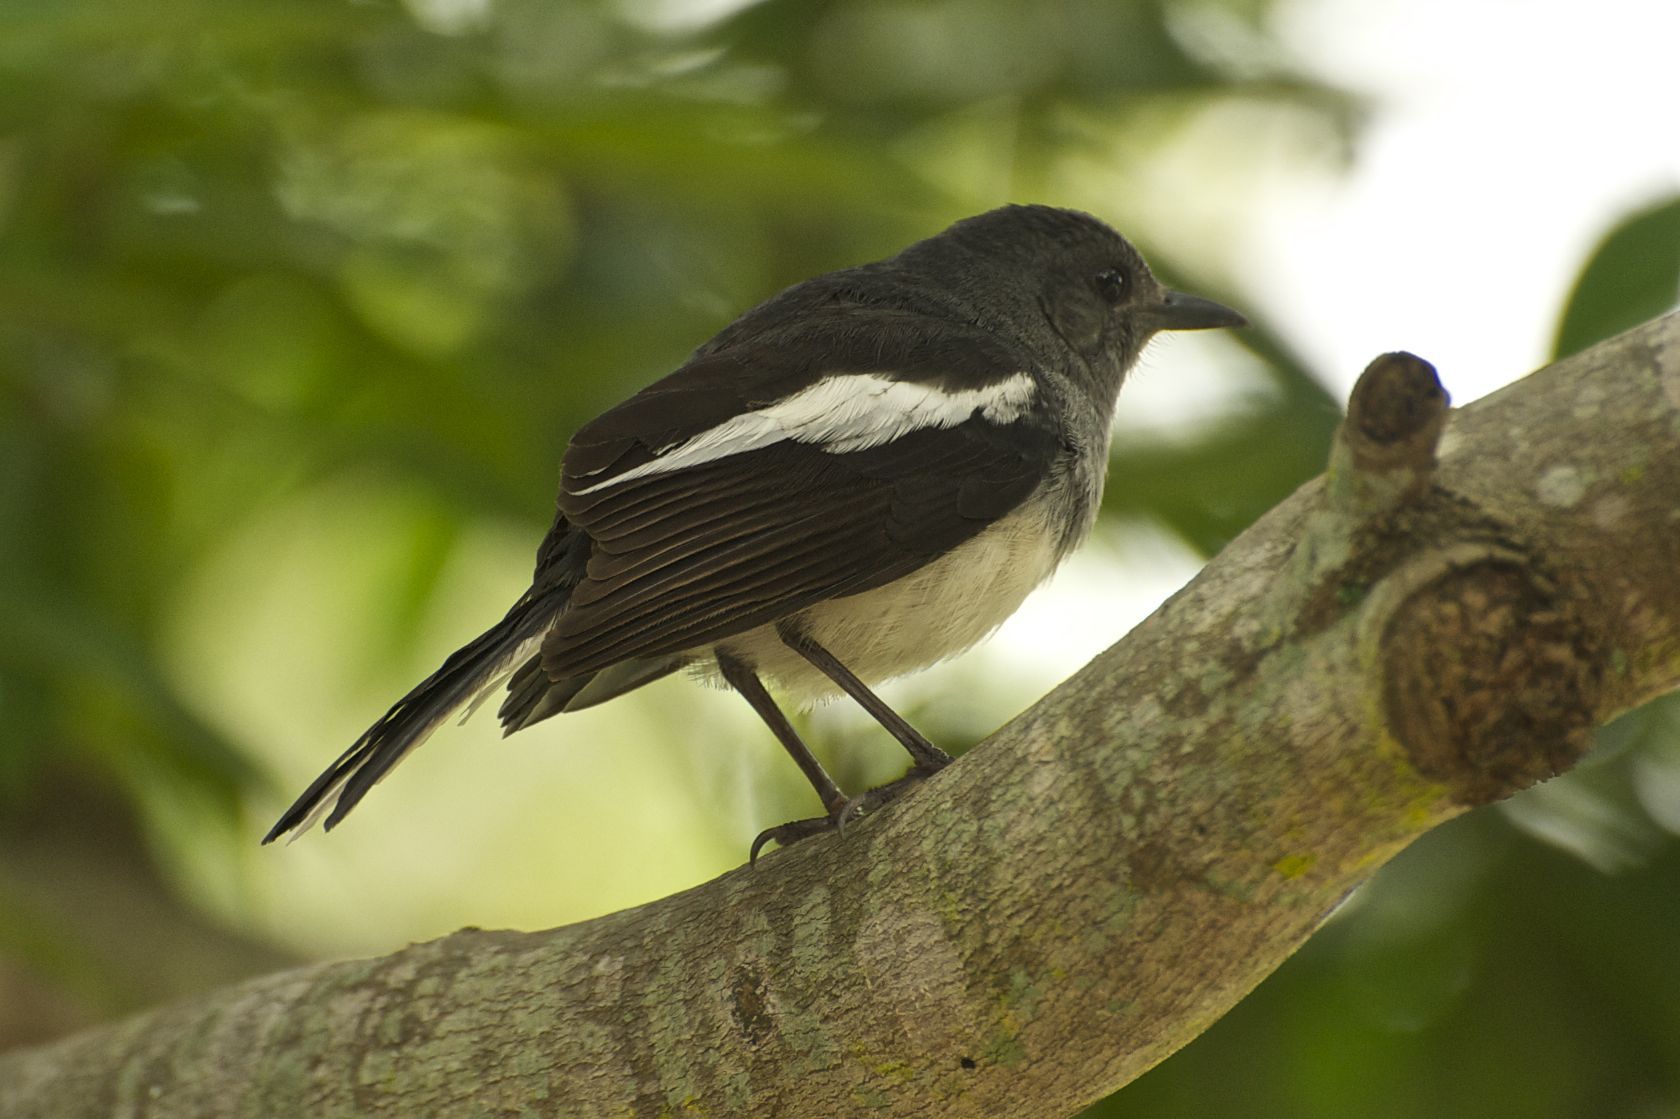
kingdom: Animalia
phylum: Chordata
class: Aves
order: Passeriformes
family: Muscicapidae
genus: Copsychus
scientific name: Copsychus saularis
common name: Oriental magpie-robin
